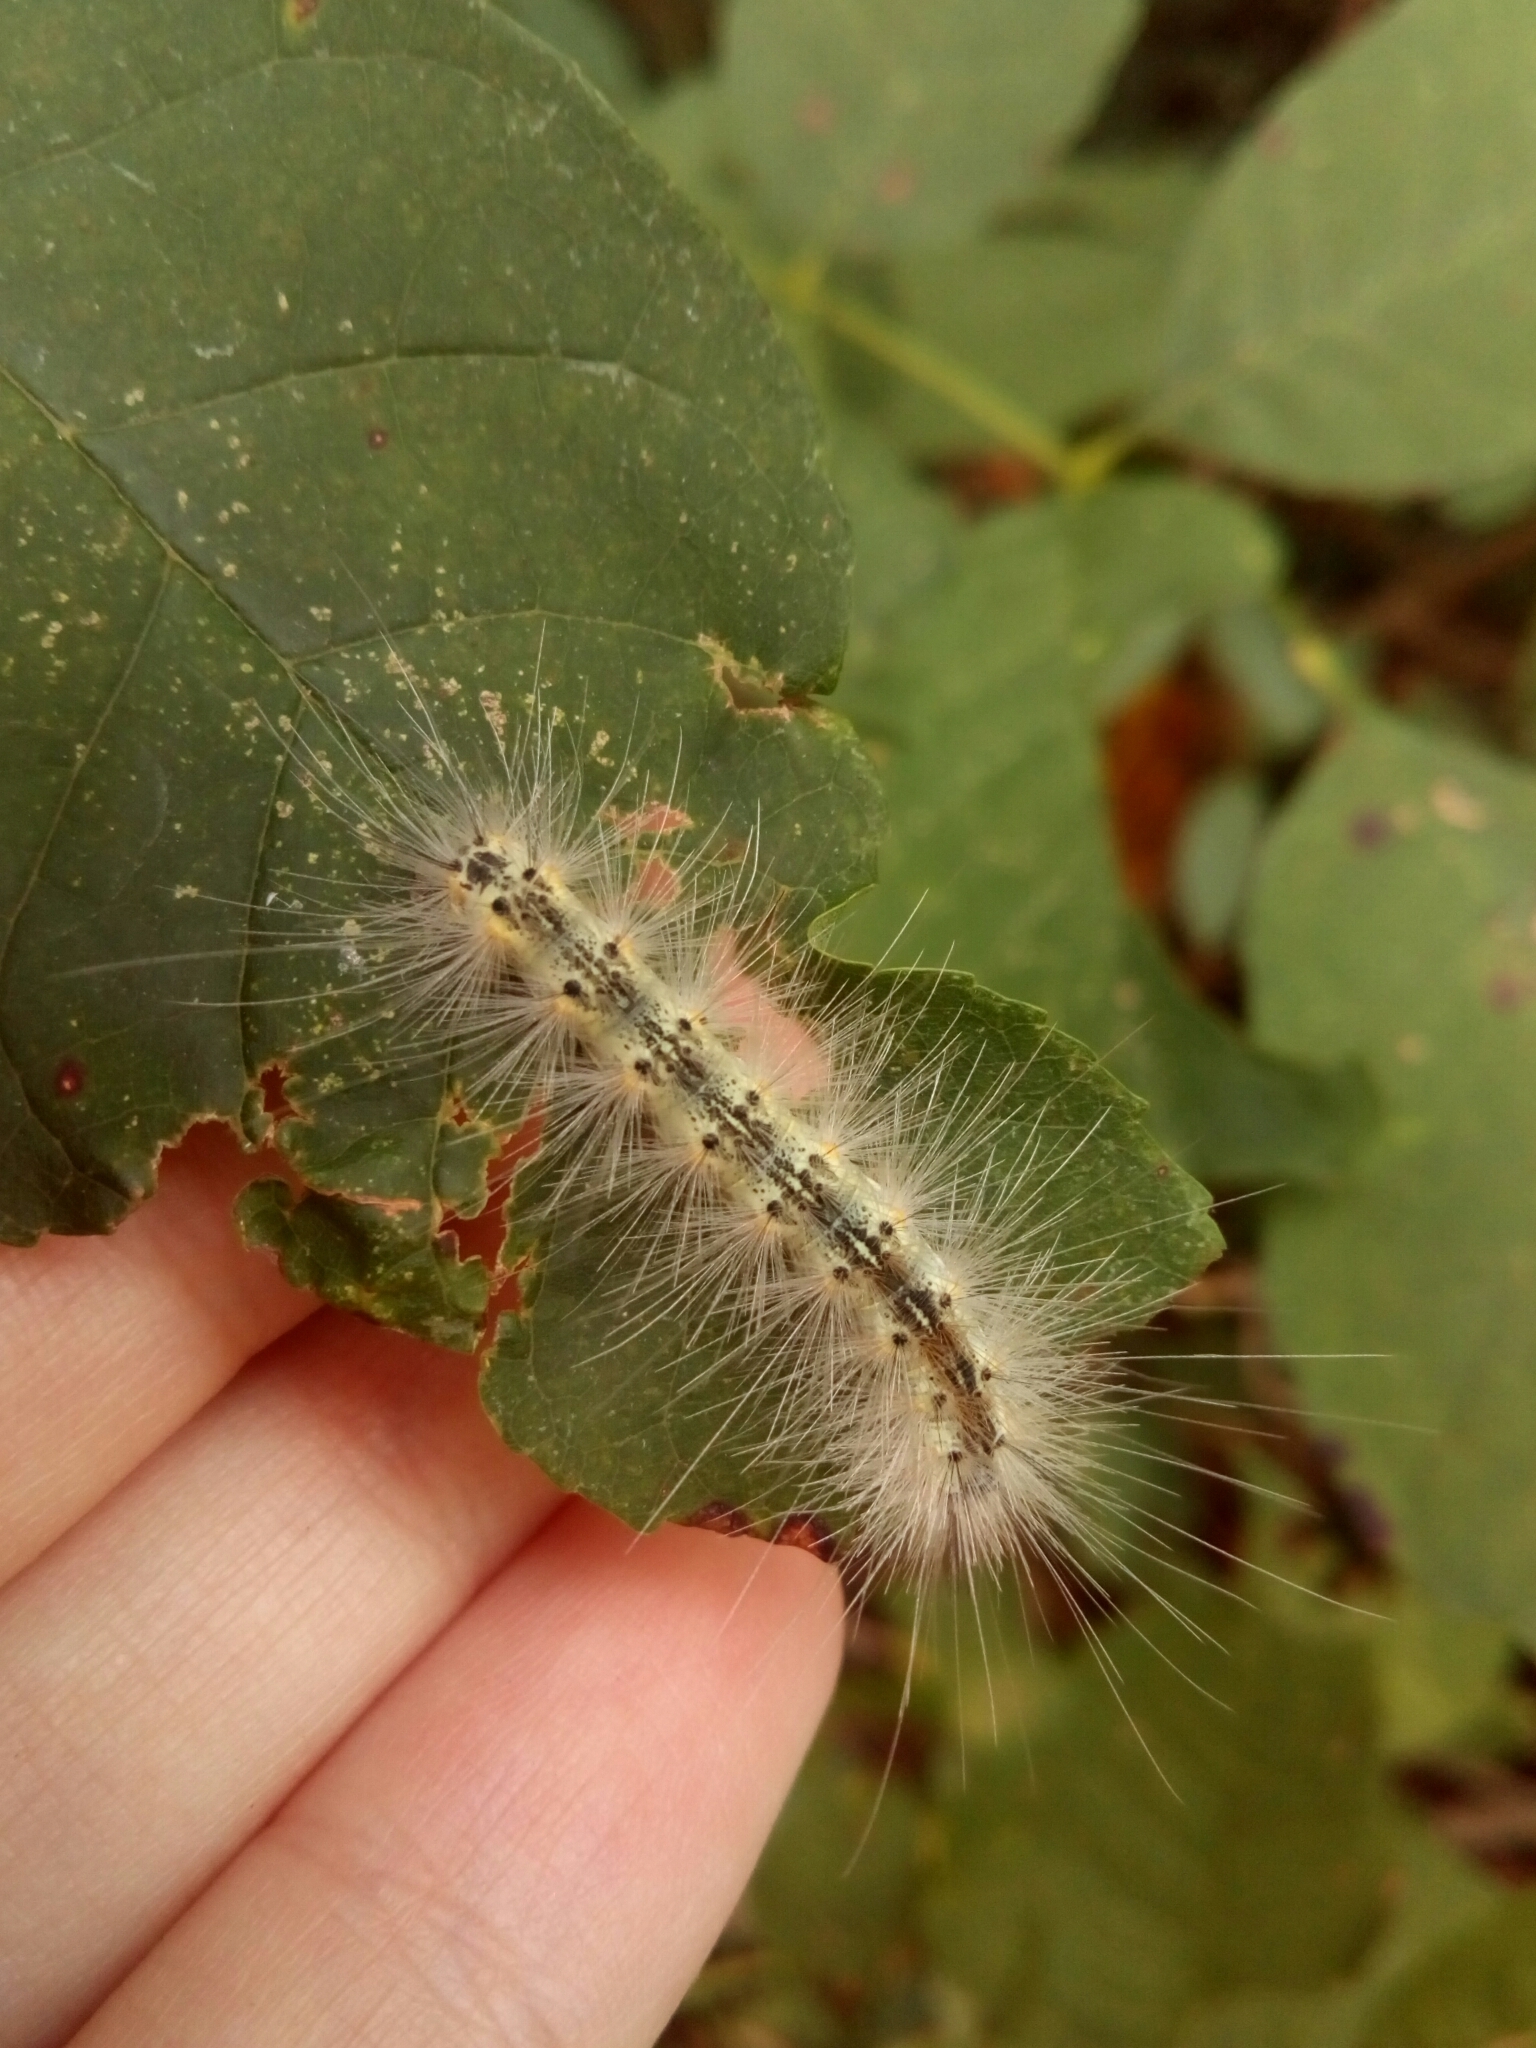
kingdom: Animalia
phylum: Arthropoda
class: Insecta
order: Lepidoptera
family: Erebidae
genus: Hyphantria
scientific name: Hyphantria cunea
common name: American white moth
